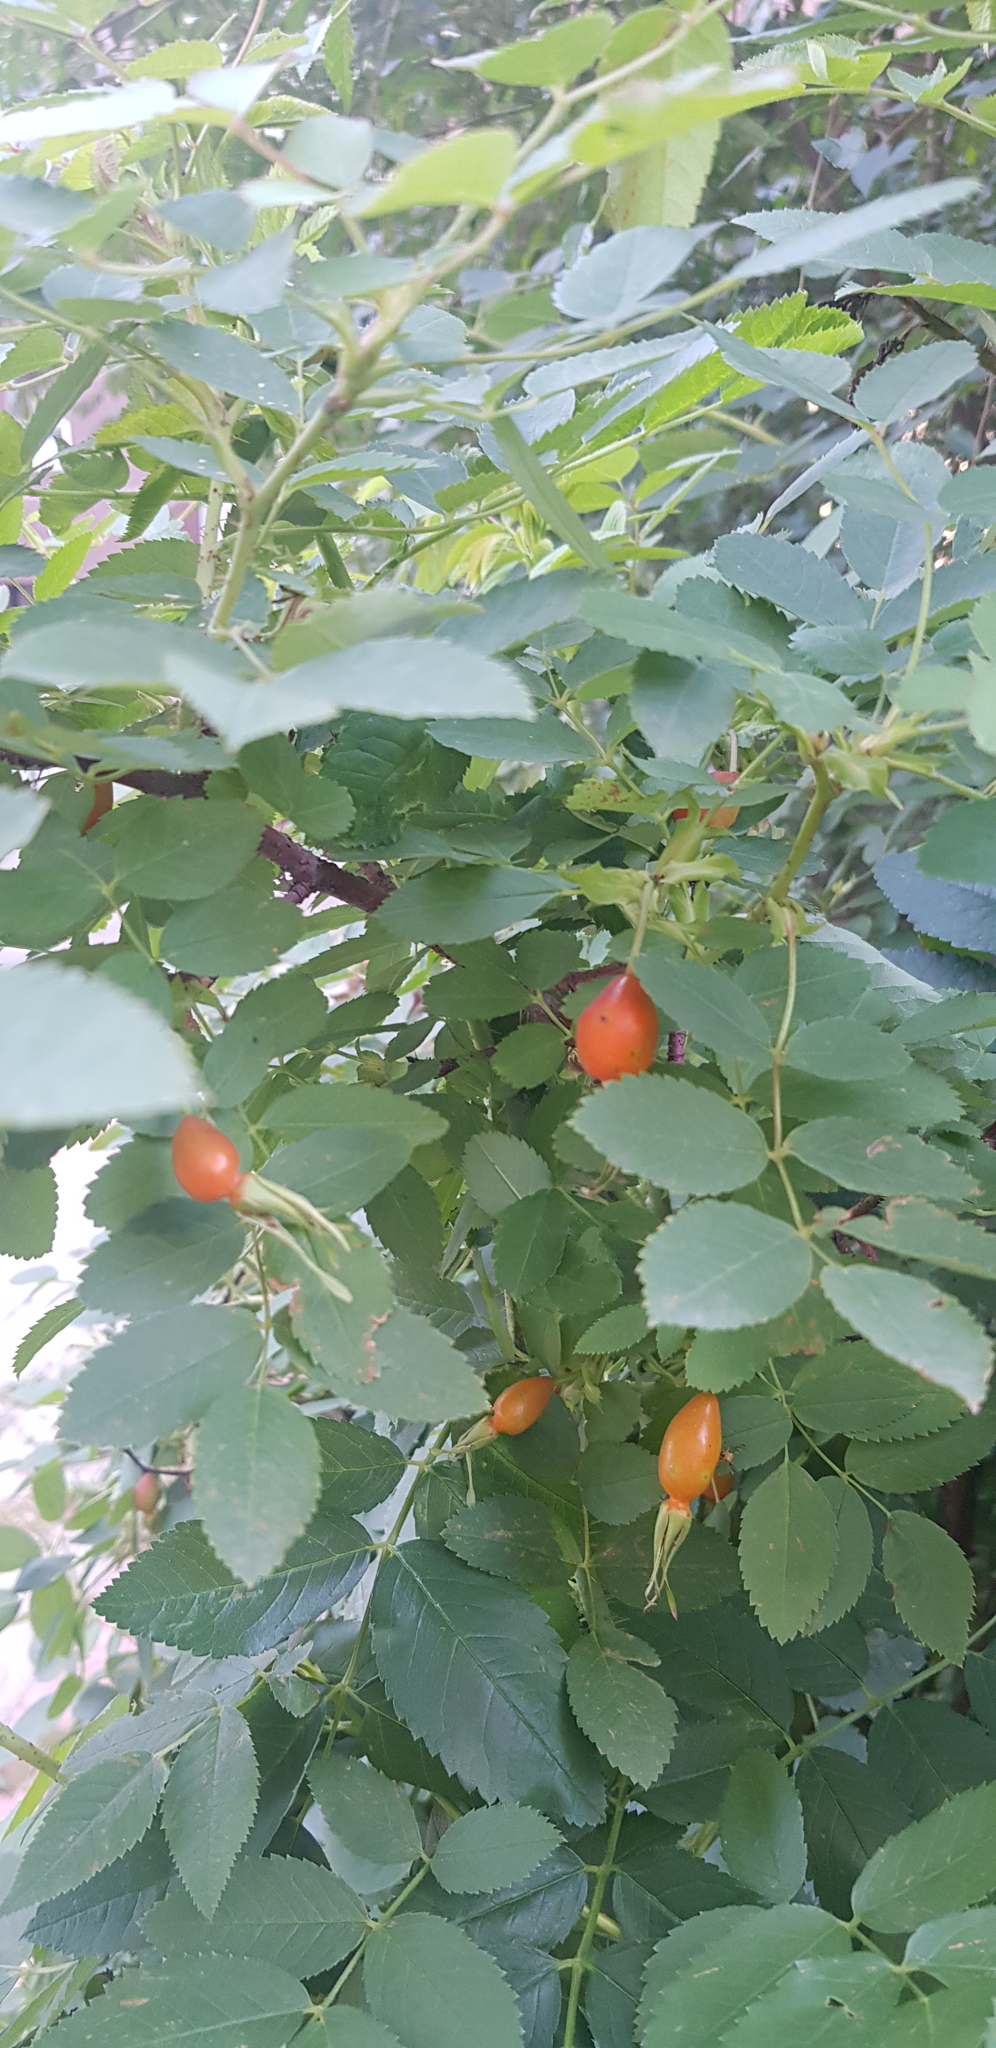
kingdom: Plantae
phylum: Tracheophyta
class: Magnoliopsida
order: Rosales
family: Rosaceae
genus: Rosa
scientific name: Rosa acicularis
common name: Prickly rose
